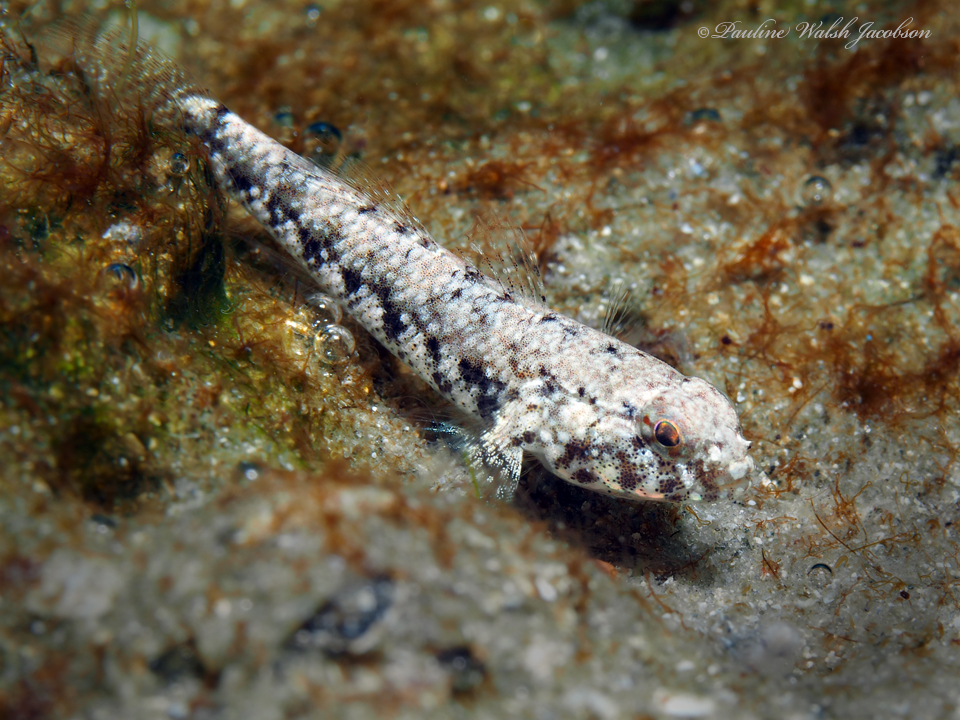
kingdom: Animalia
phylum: Chordata
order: Perciformes
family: Gobiidae
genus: Bathygobius
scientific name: Bathygobius mystacium
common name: Island frillfin
